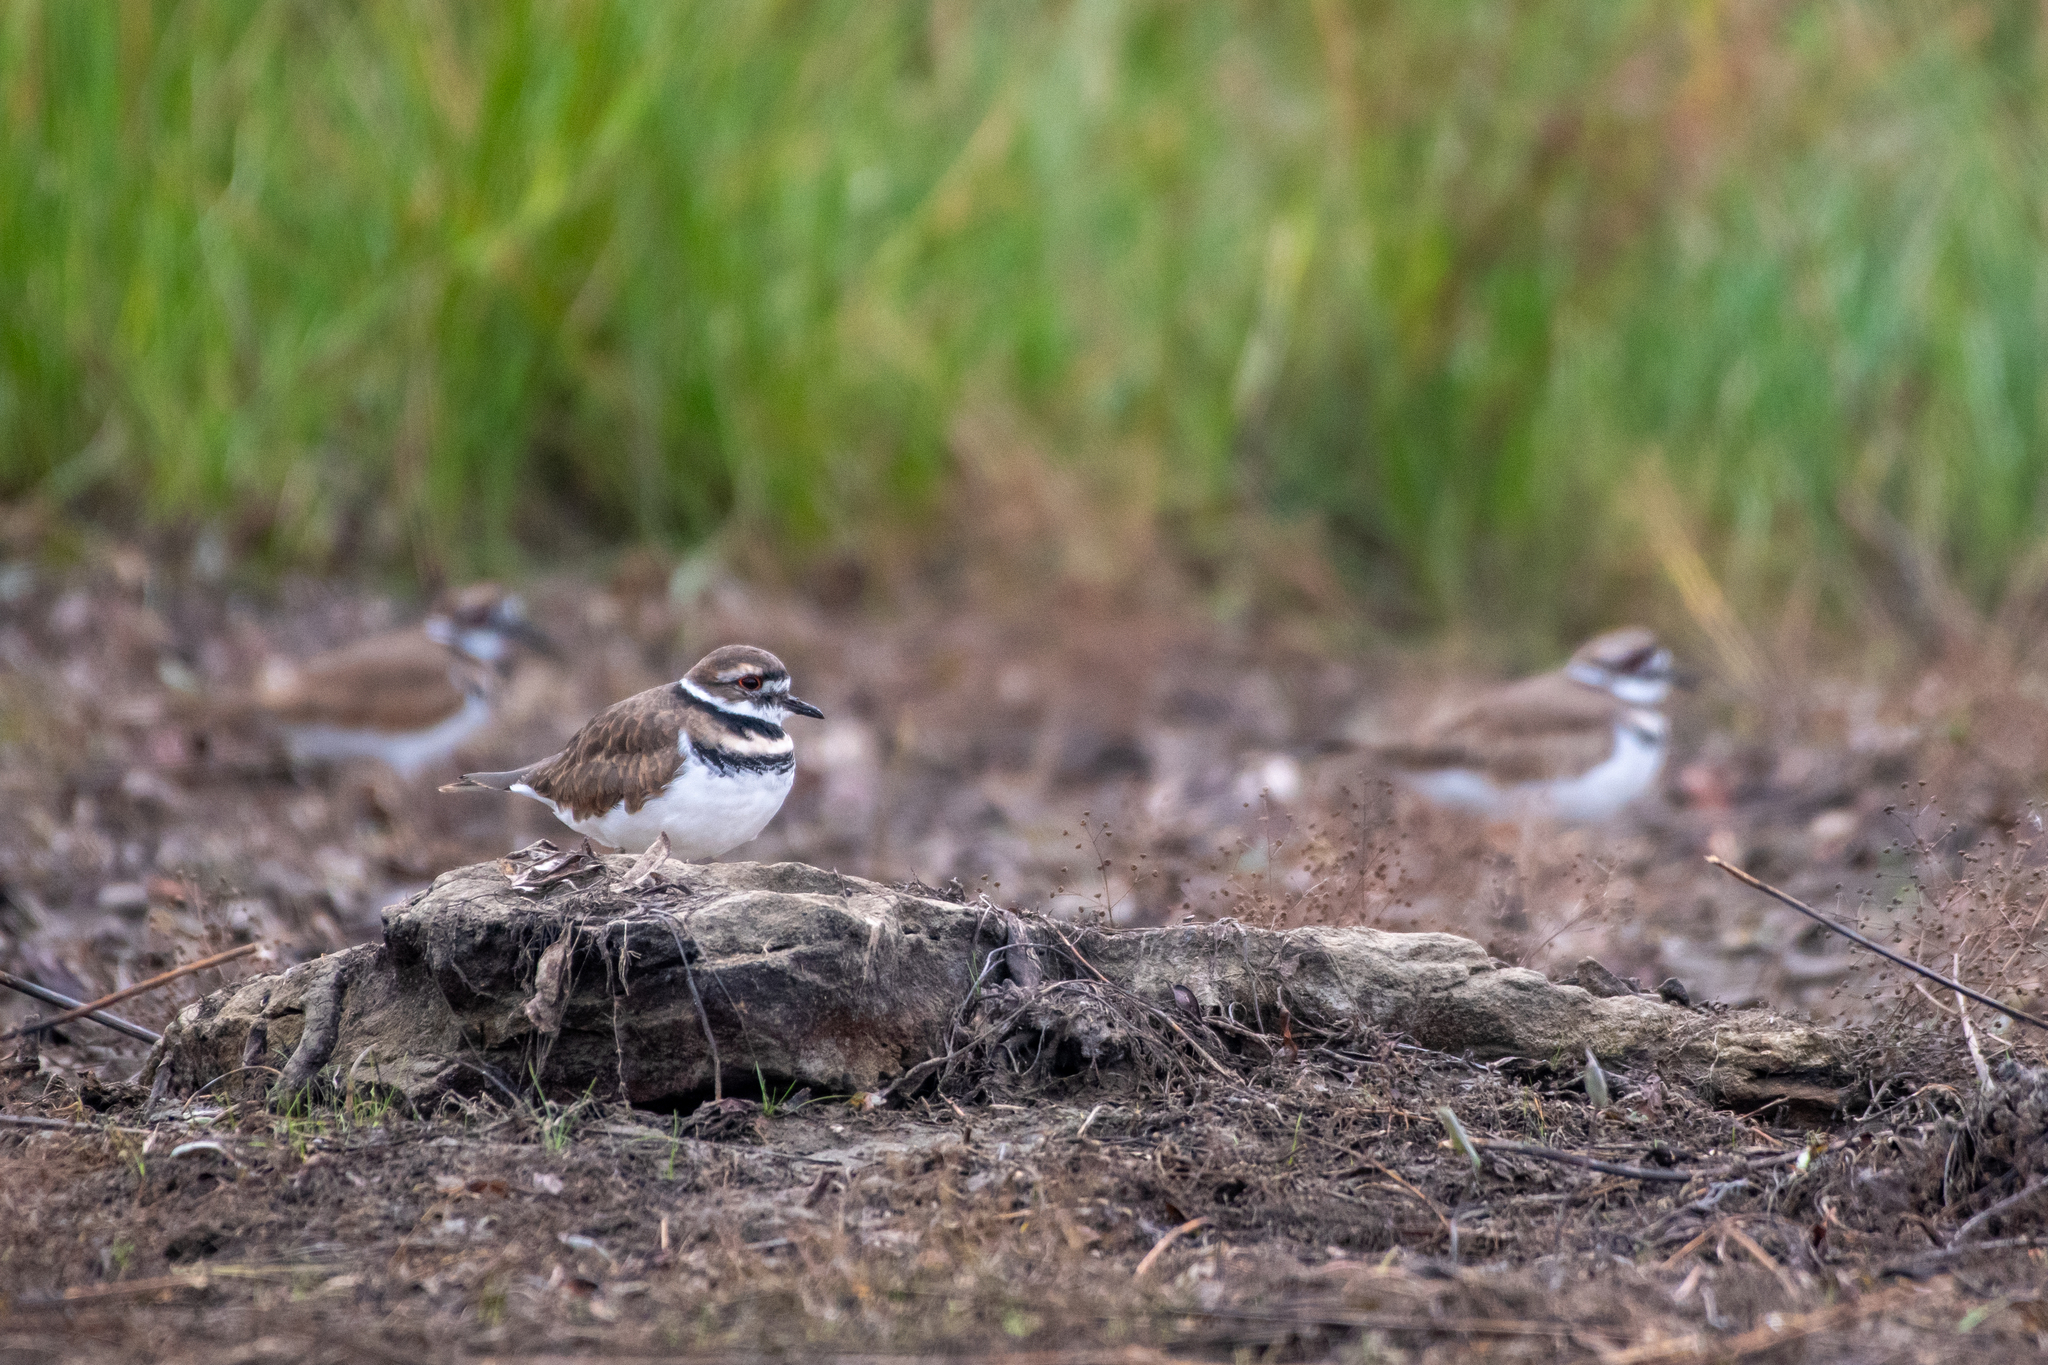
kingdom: Animalia
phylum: Chordata
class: Aves
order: Charadriiformes
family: Charadriidae
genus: Charadrius
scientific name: Charadrius vociferus
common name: Killdeer
